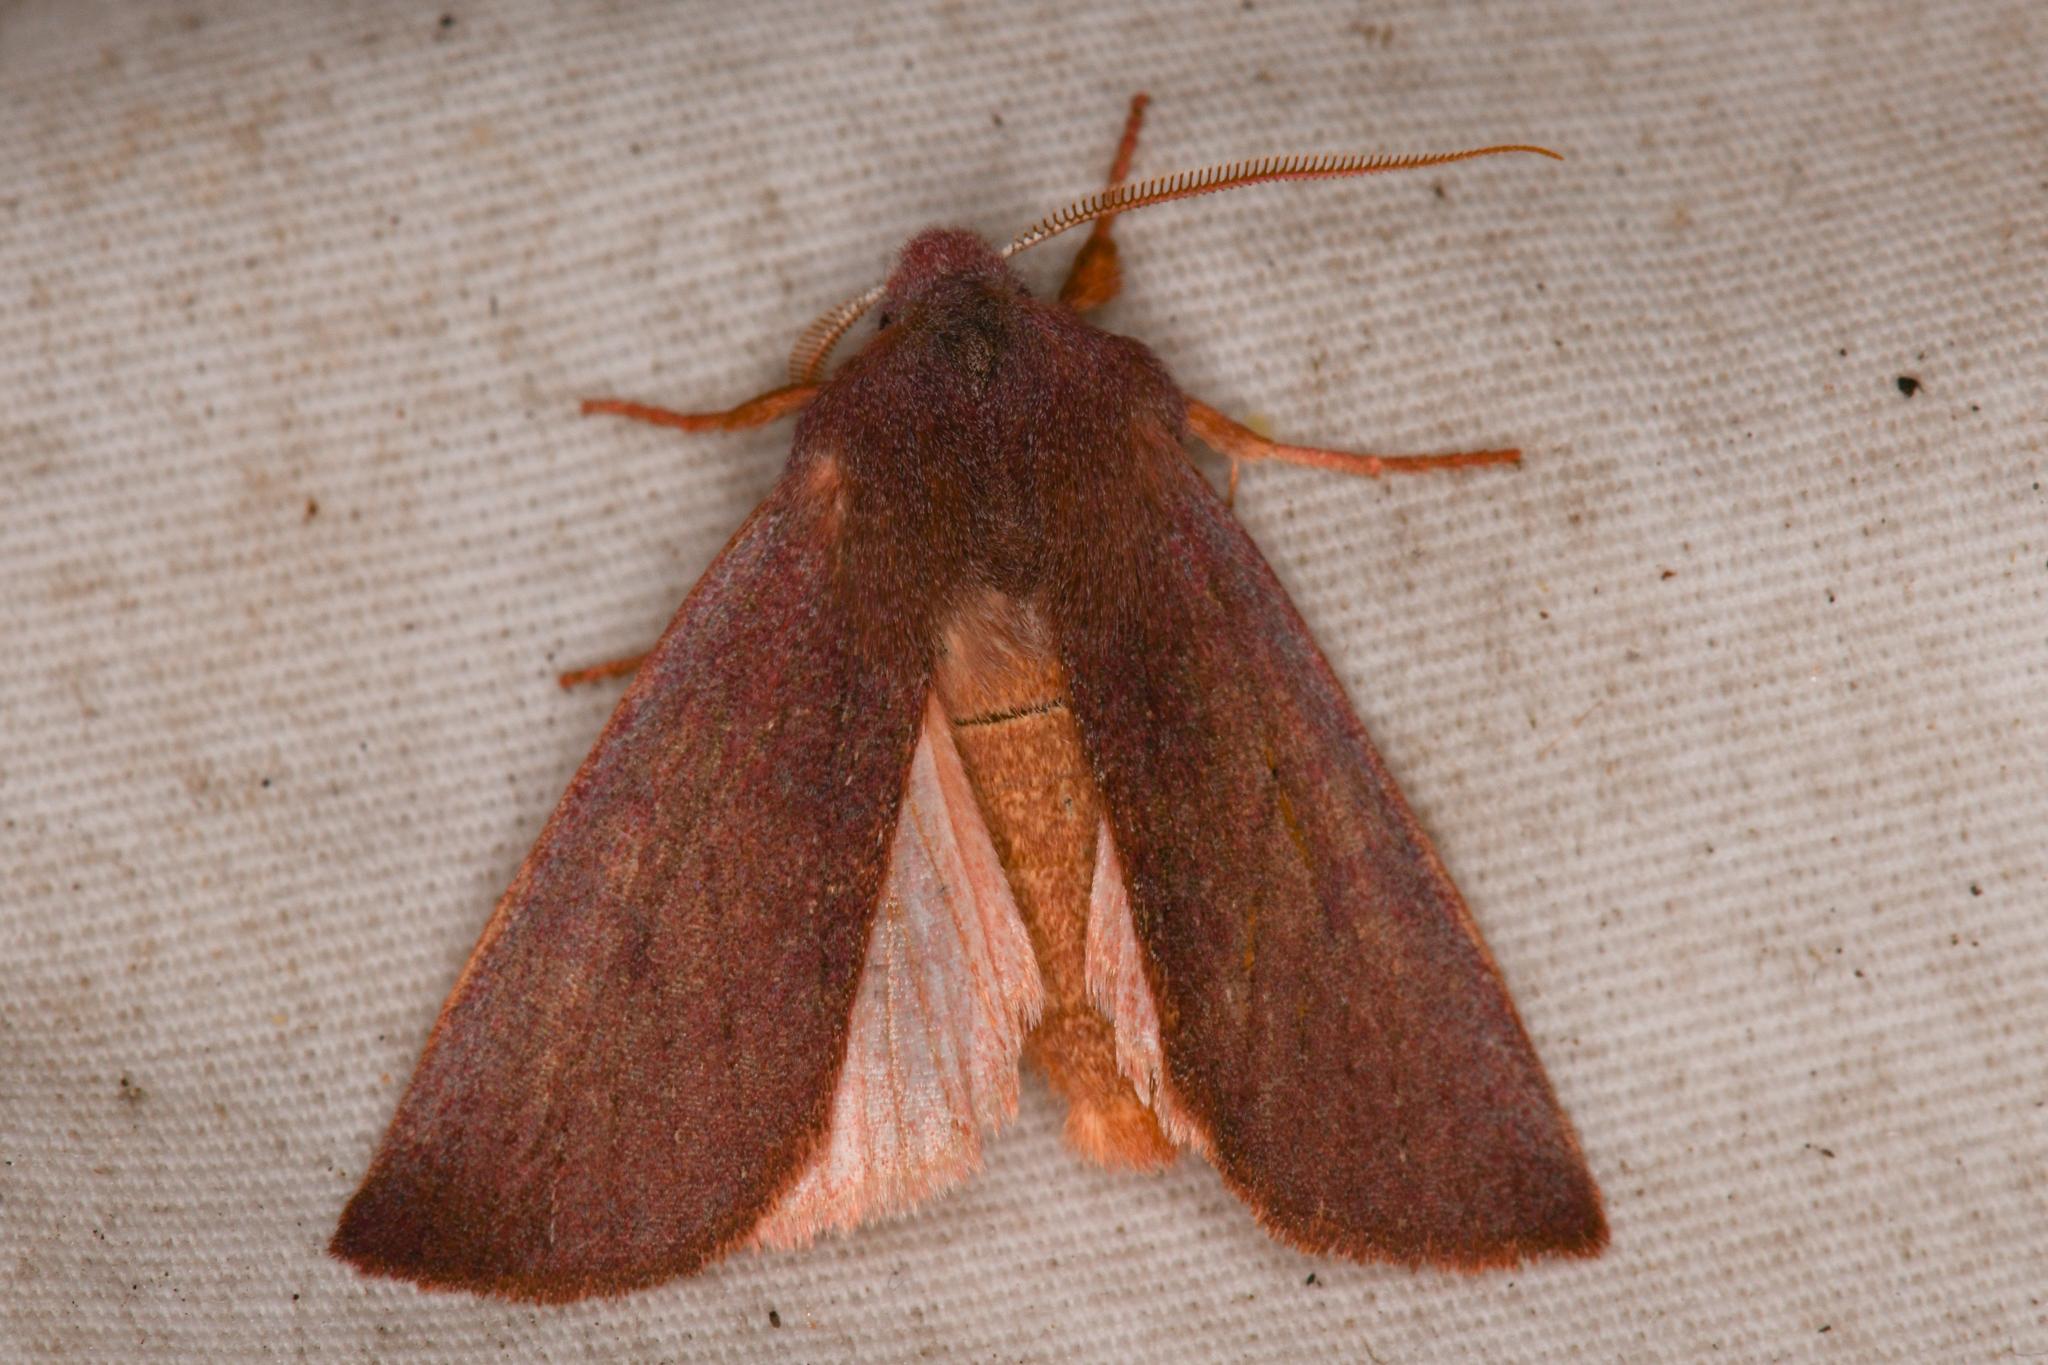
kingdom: Animalia
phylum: Arthropoda
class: Insecta
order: Lepidoptera
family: Noctuidae
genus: Orthosia
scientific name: Orthosia mys
